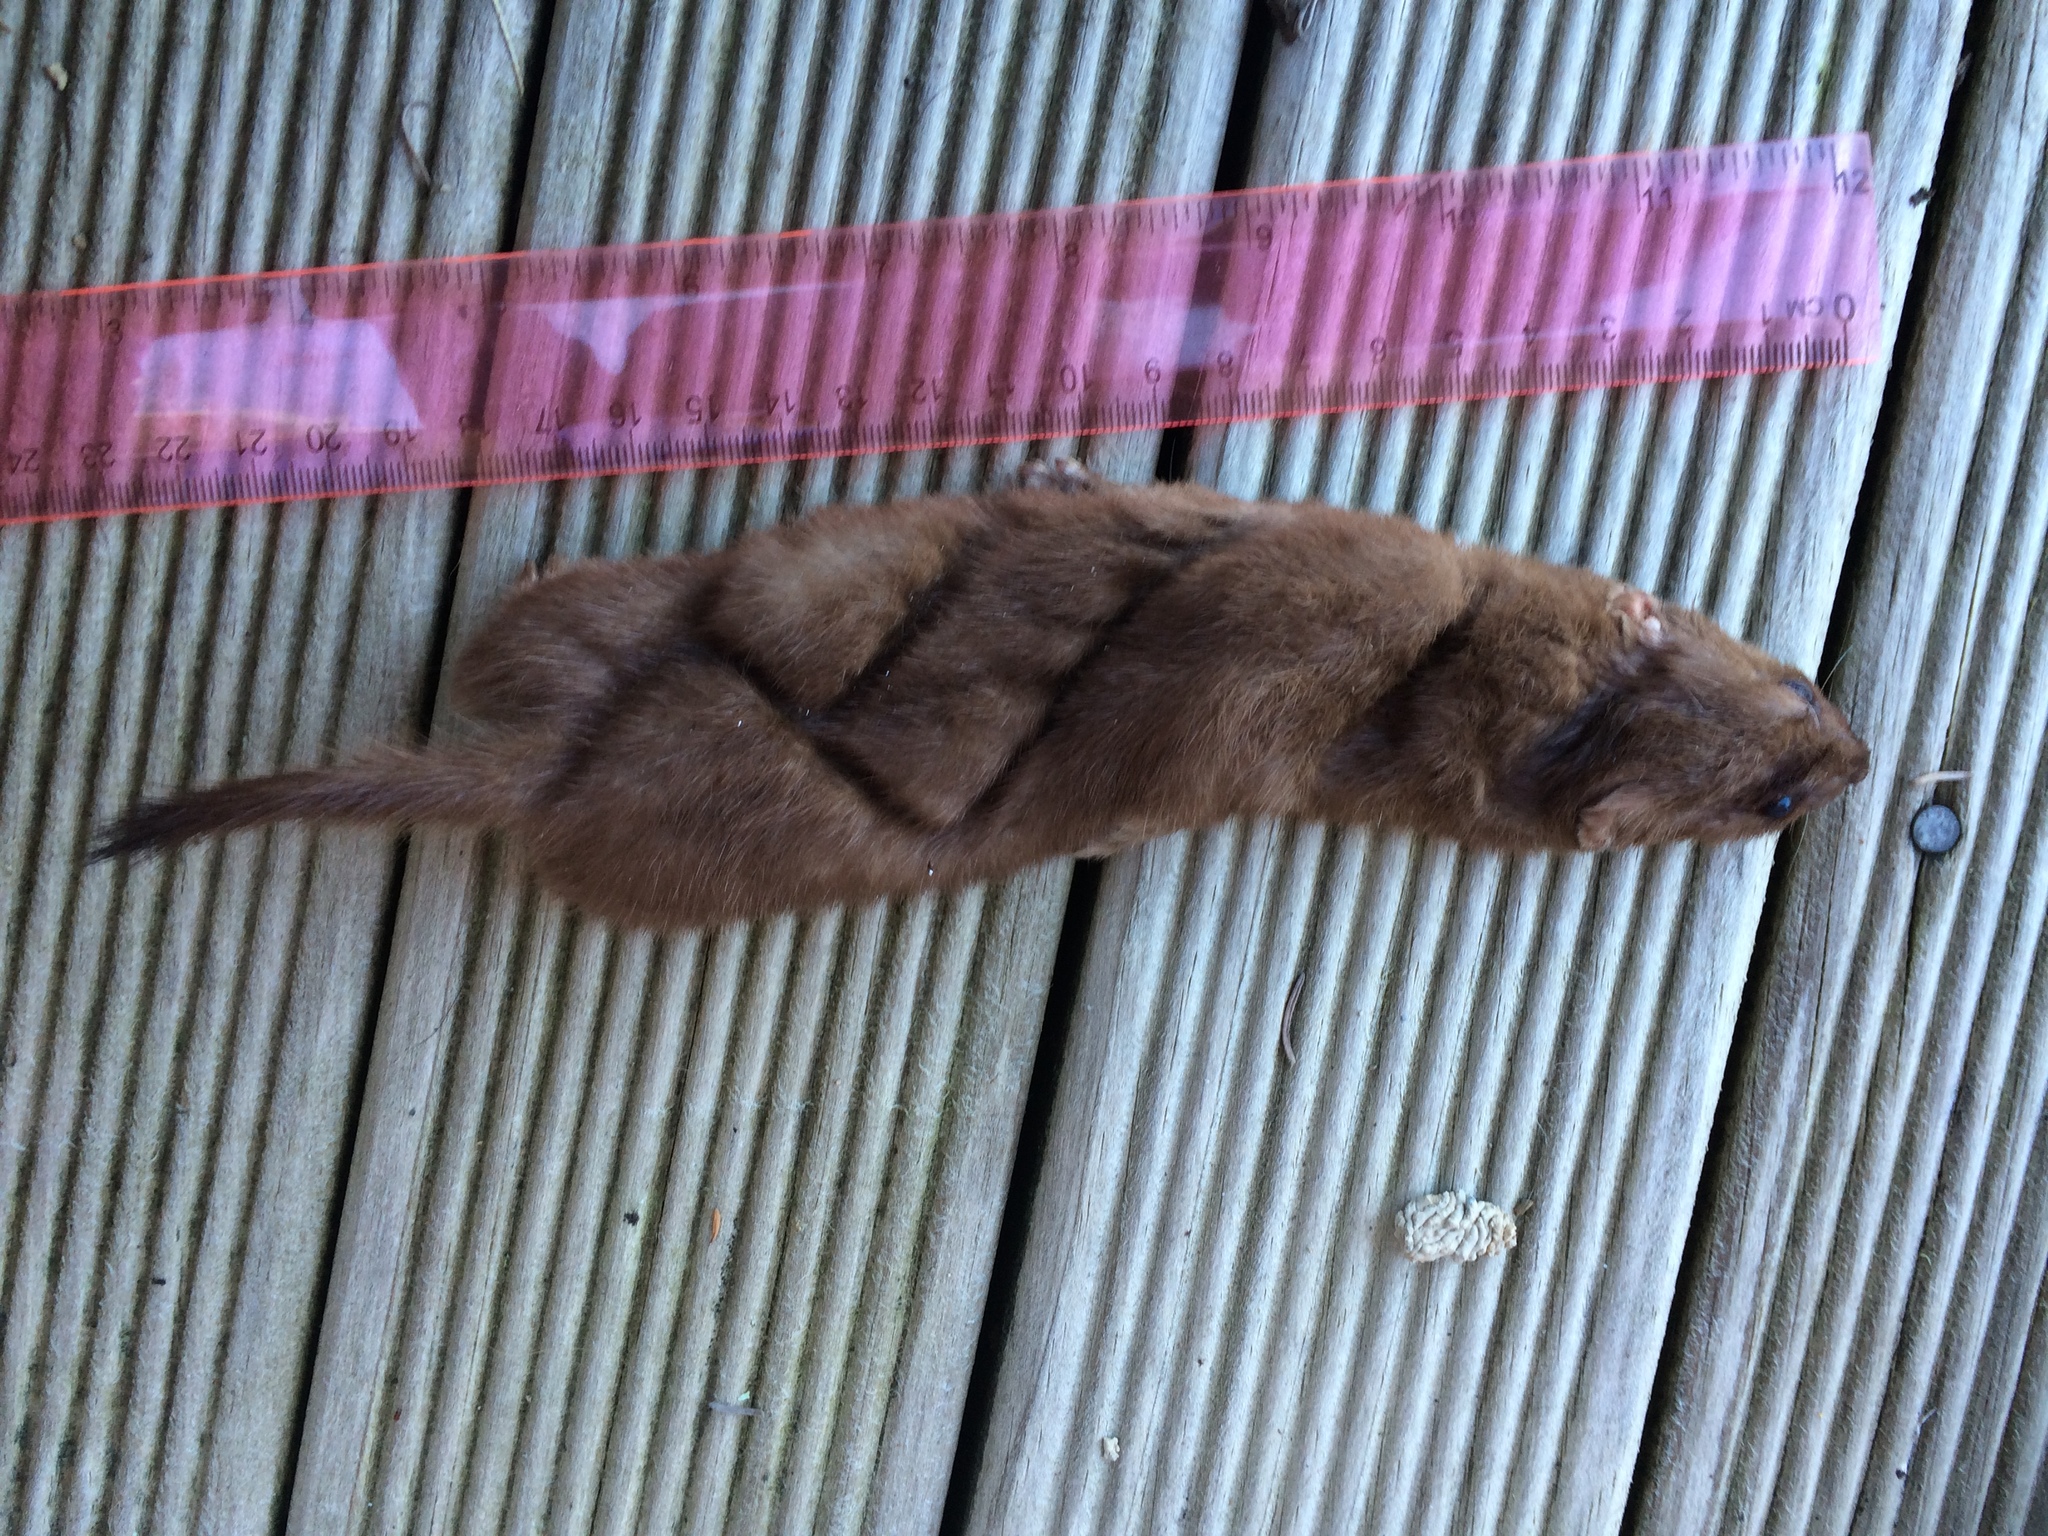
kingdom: Animalia
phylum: Chordata
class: Mammalia
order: Carnivora
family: Mustelidae
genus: Mustela
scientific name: Mustela nivalis
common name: Least weasel
